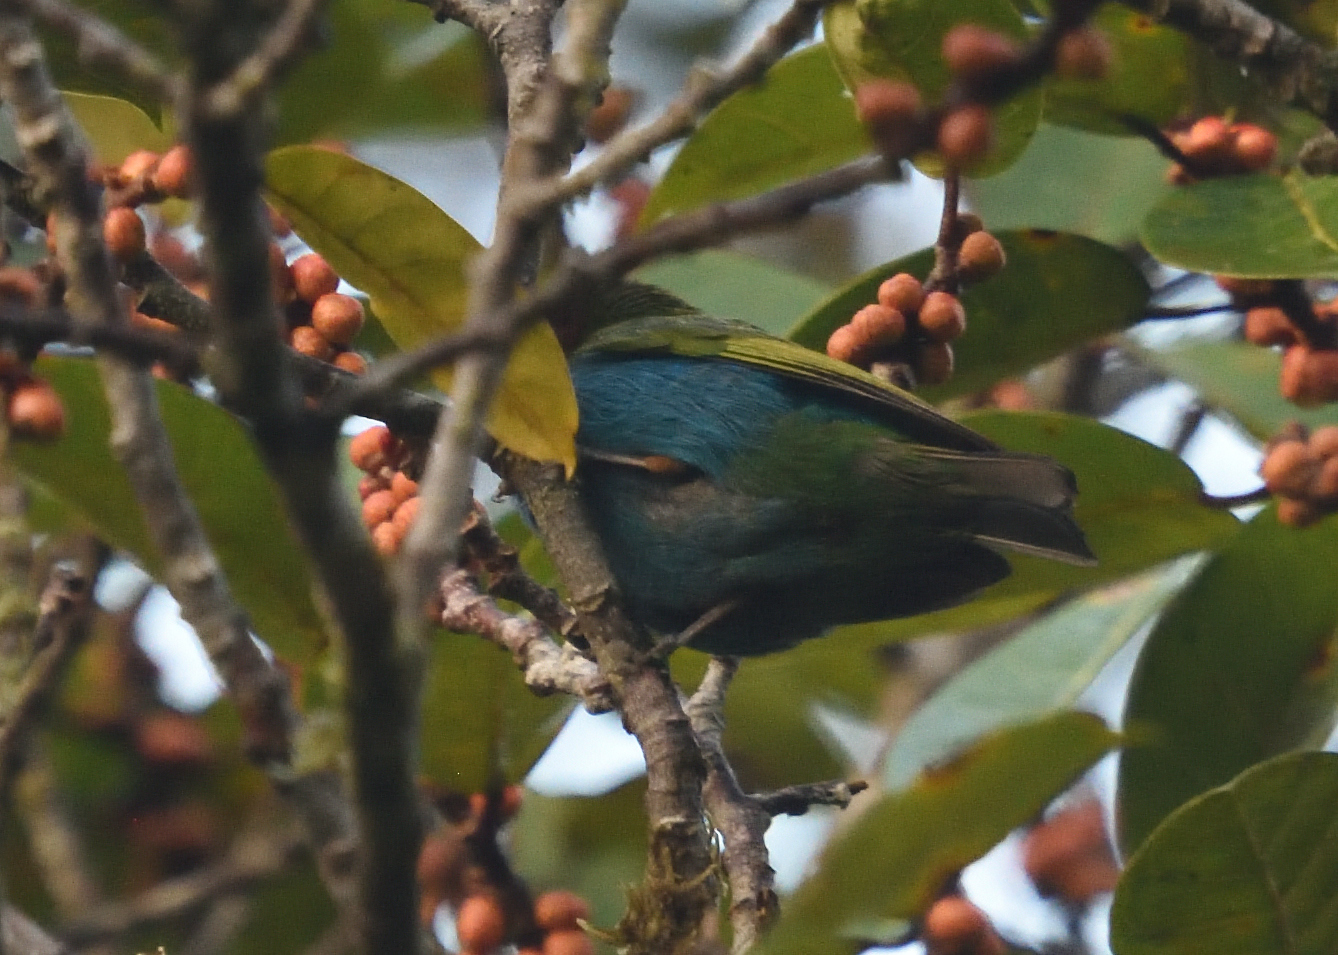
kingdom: Animalia
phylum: Chordata
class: Aves
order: Passeriformes
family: Thraupidae
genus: Tangara
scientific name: Tangara gyrola
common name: Bay-headed tanager
